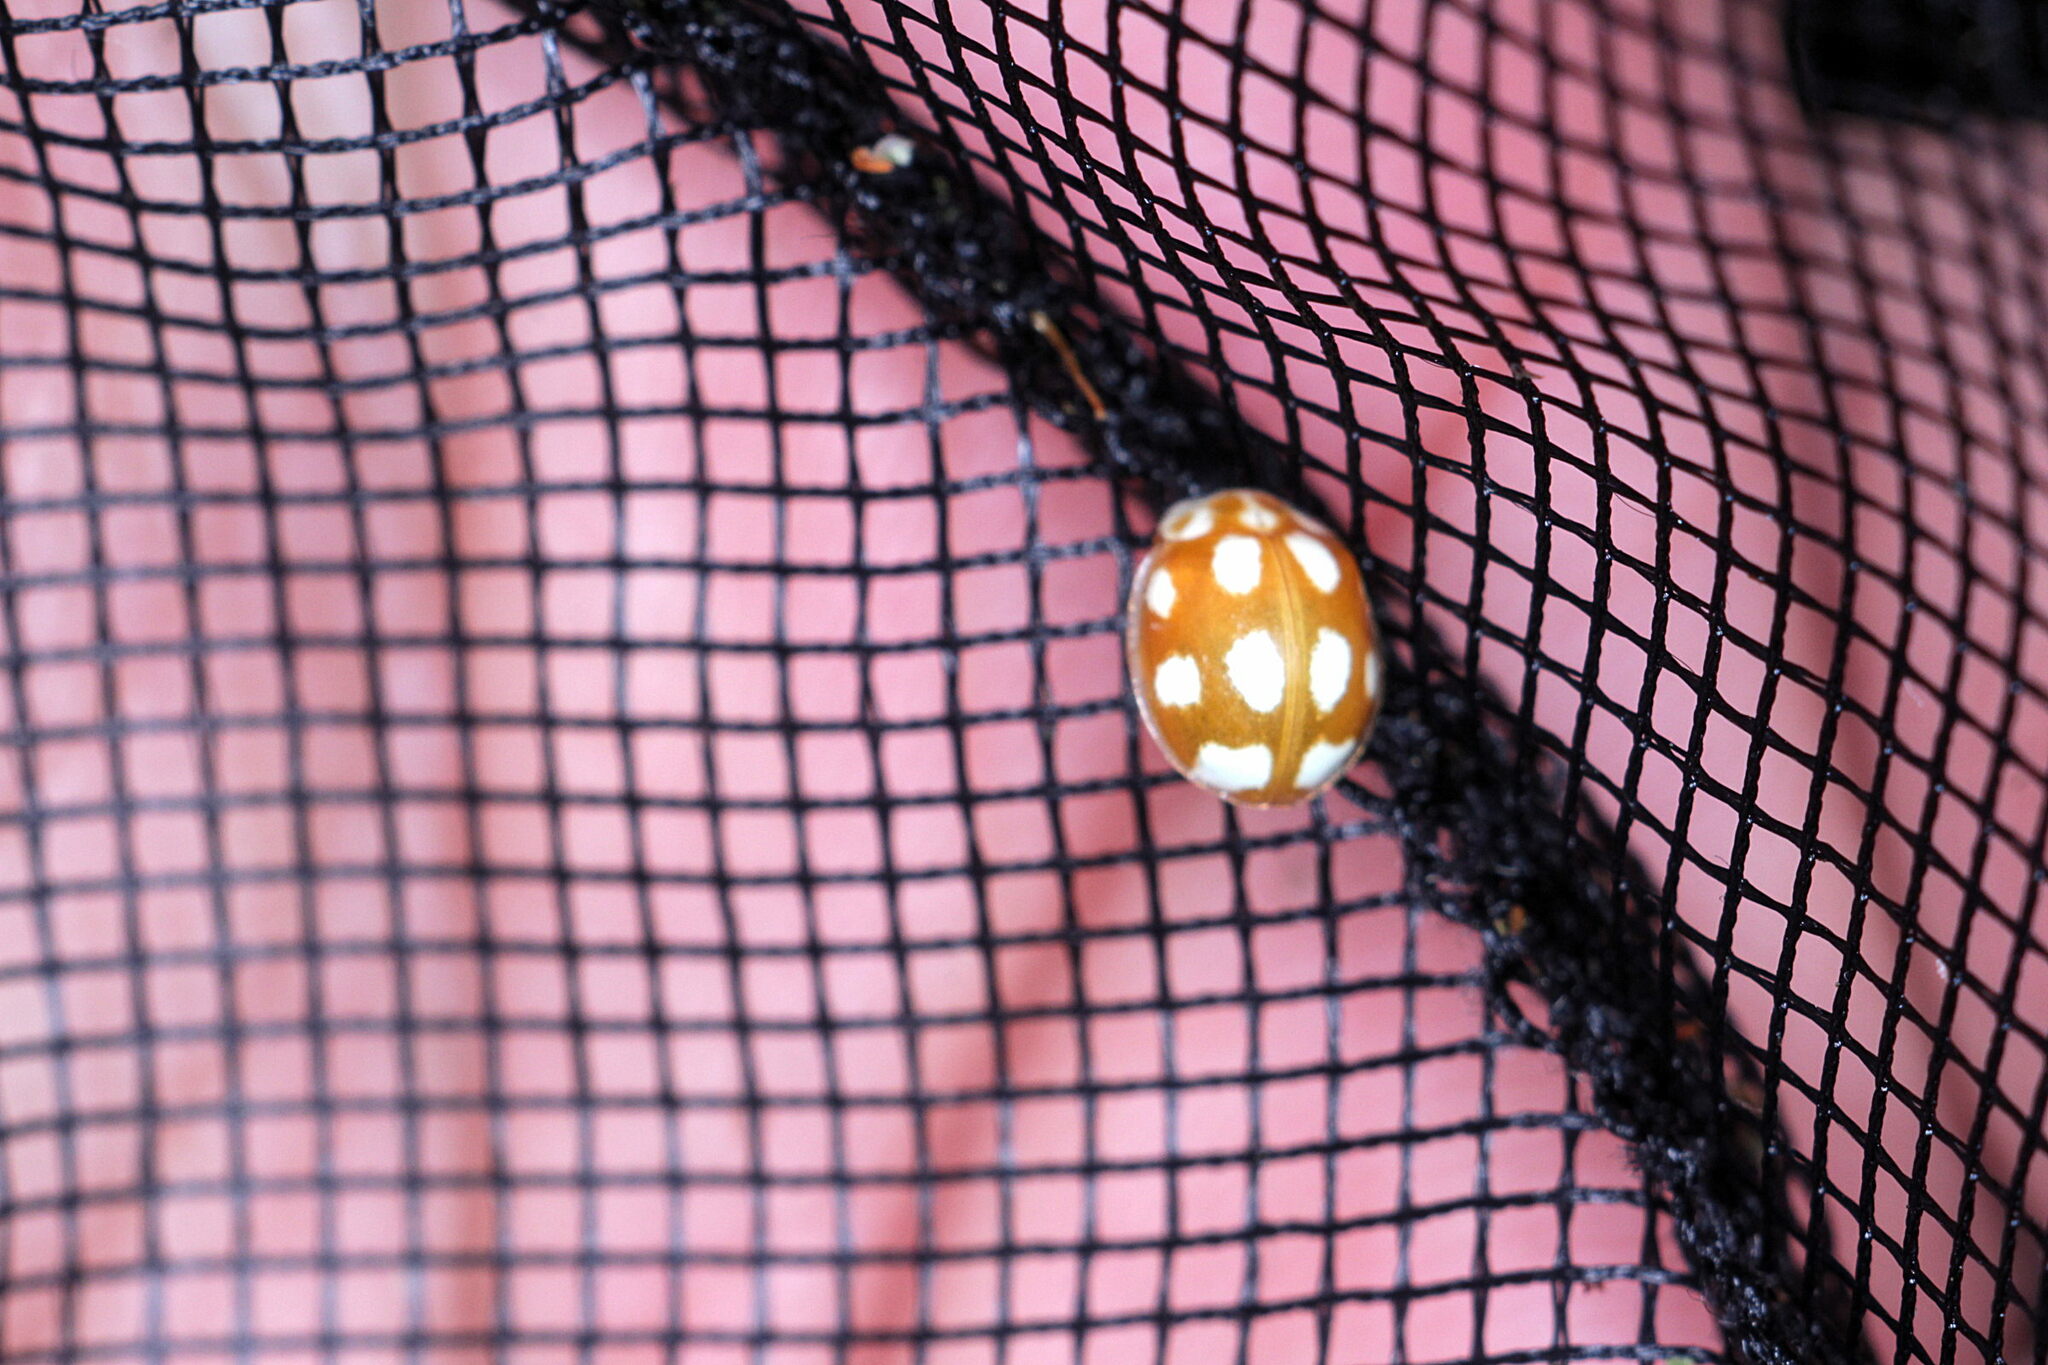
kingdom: Animalia
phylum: Arthropoda
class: Insecta
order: Coleoptera
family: Coccinellidae
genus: Calvia
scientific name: Calvia decemguttata
